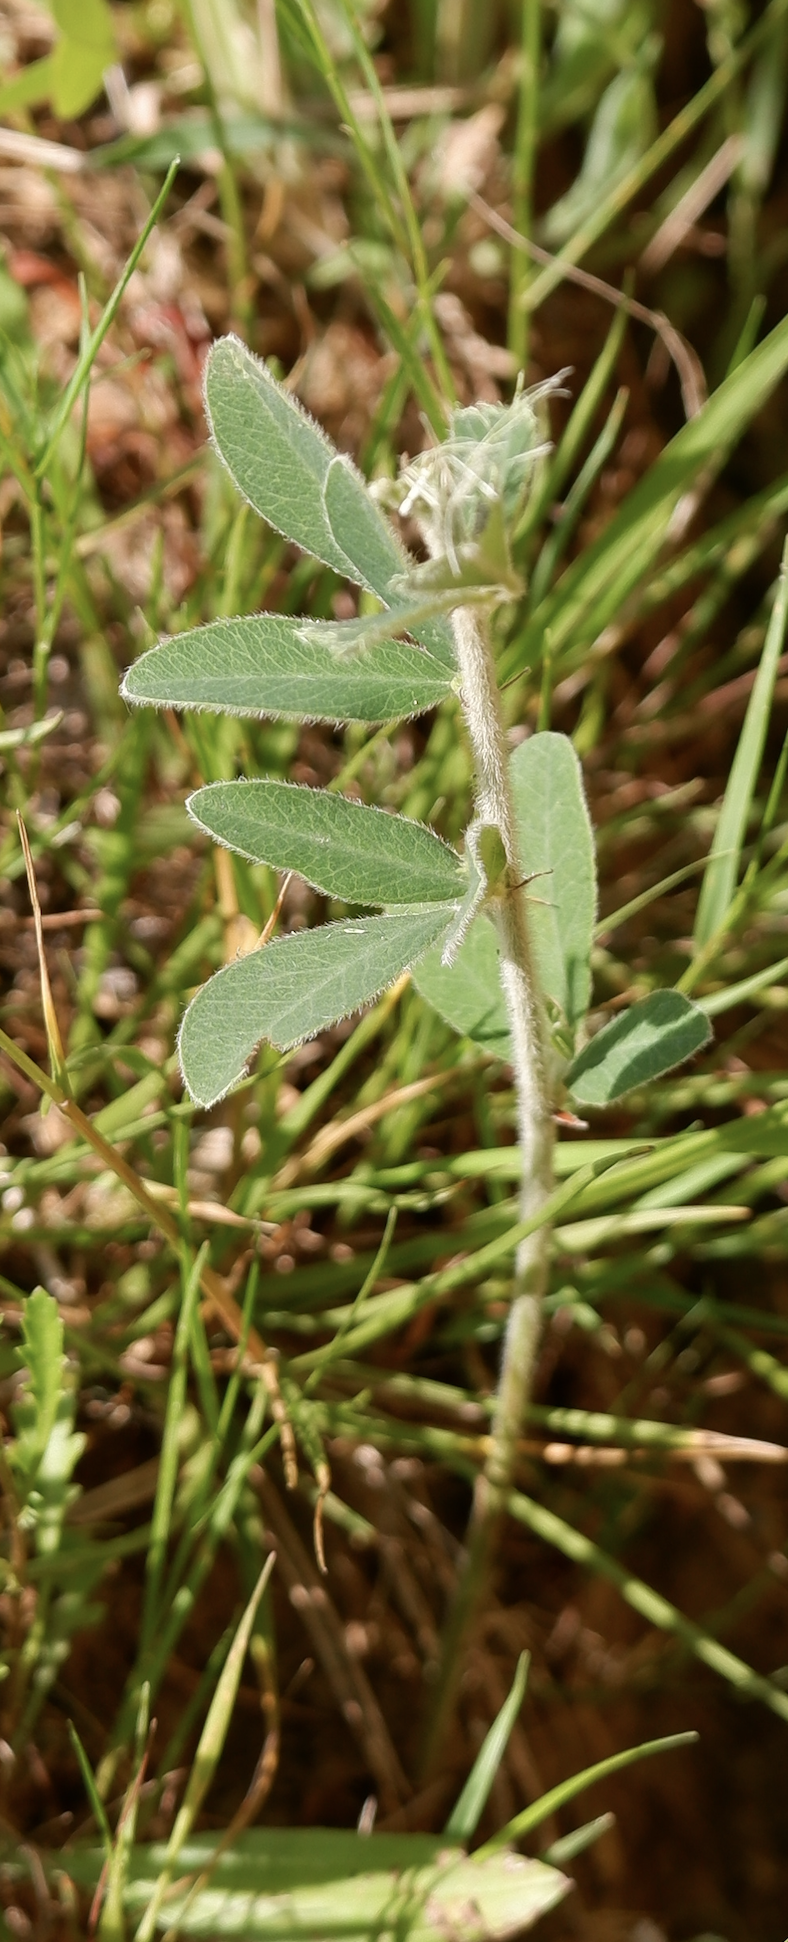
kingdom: Plantae
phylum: Tracheophyta
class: Magnoliopsida
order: Fabales
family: Fabaceae
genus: Lespedeza
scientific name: Lespedeza capitata
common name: Dusty clover
